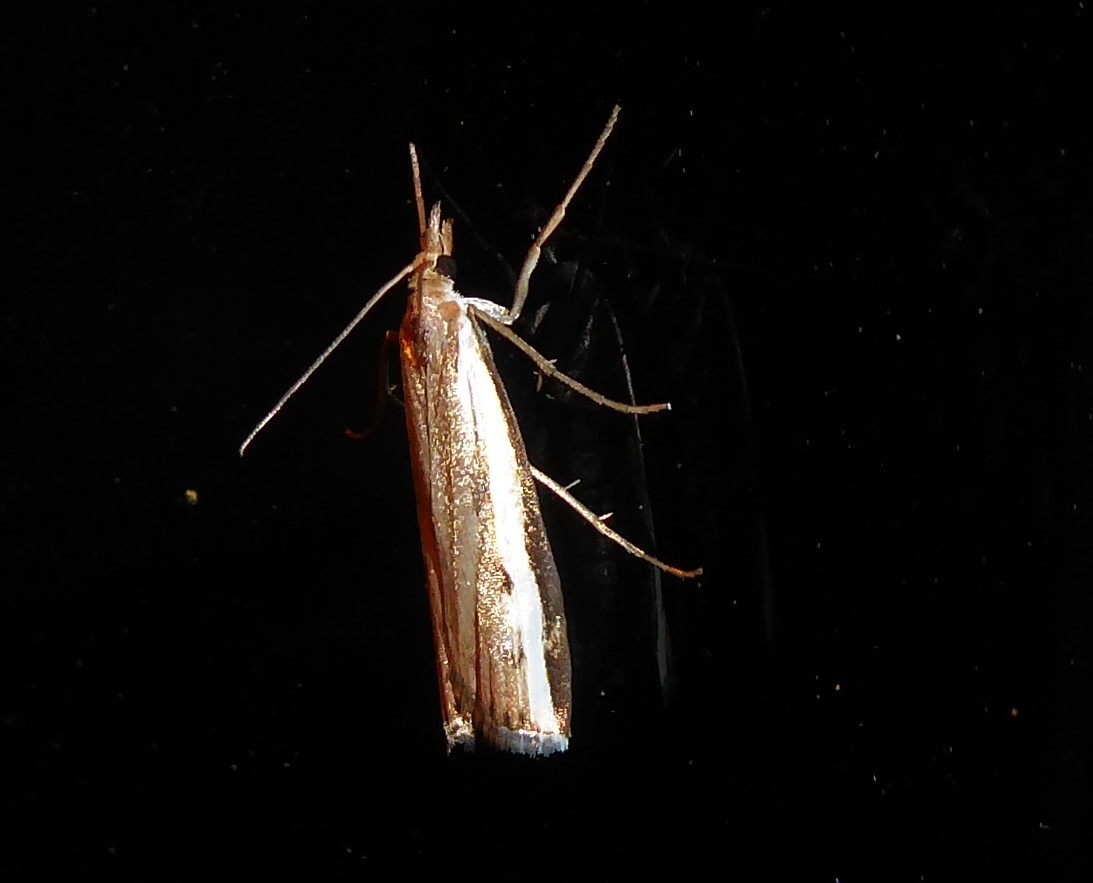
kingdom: Animalia
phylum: Arthropoda
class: Insecta
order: Lepidoptera
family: Crambidae
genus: Orocrambus
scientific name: Orocrambus flexuosellus
